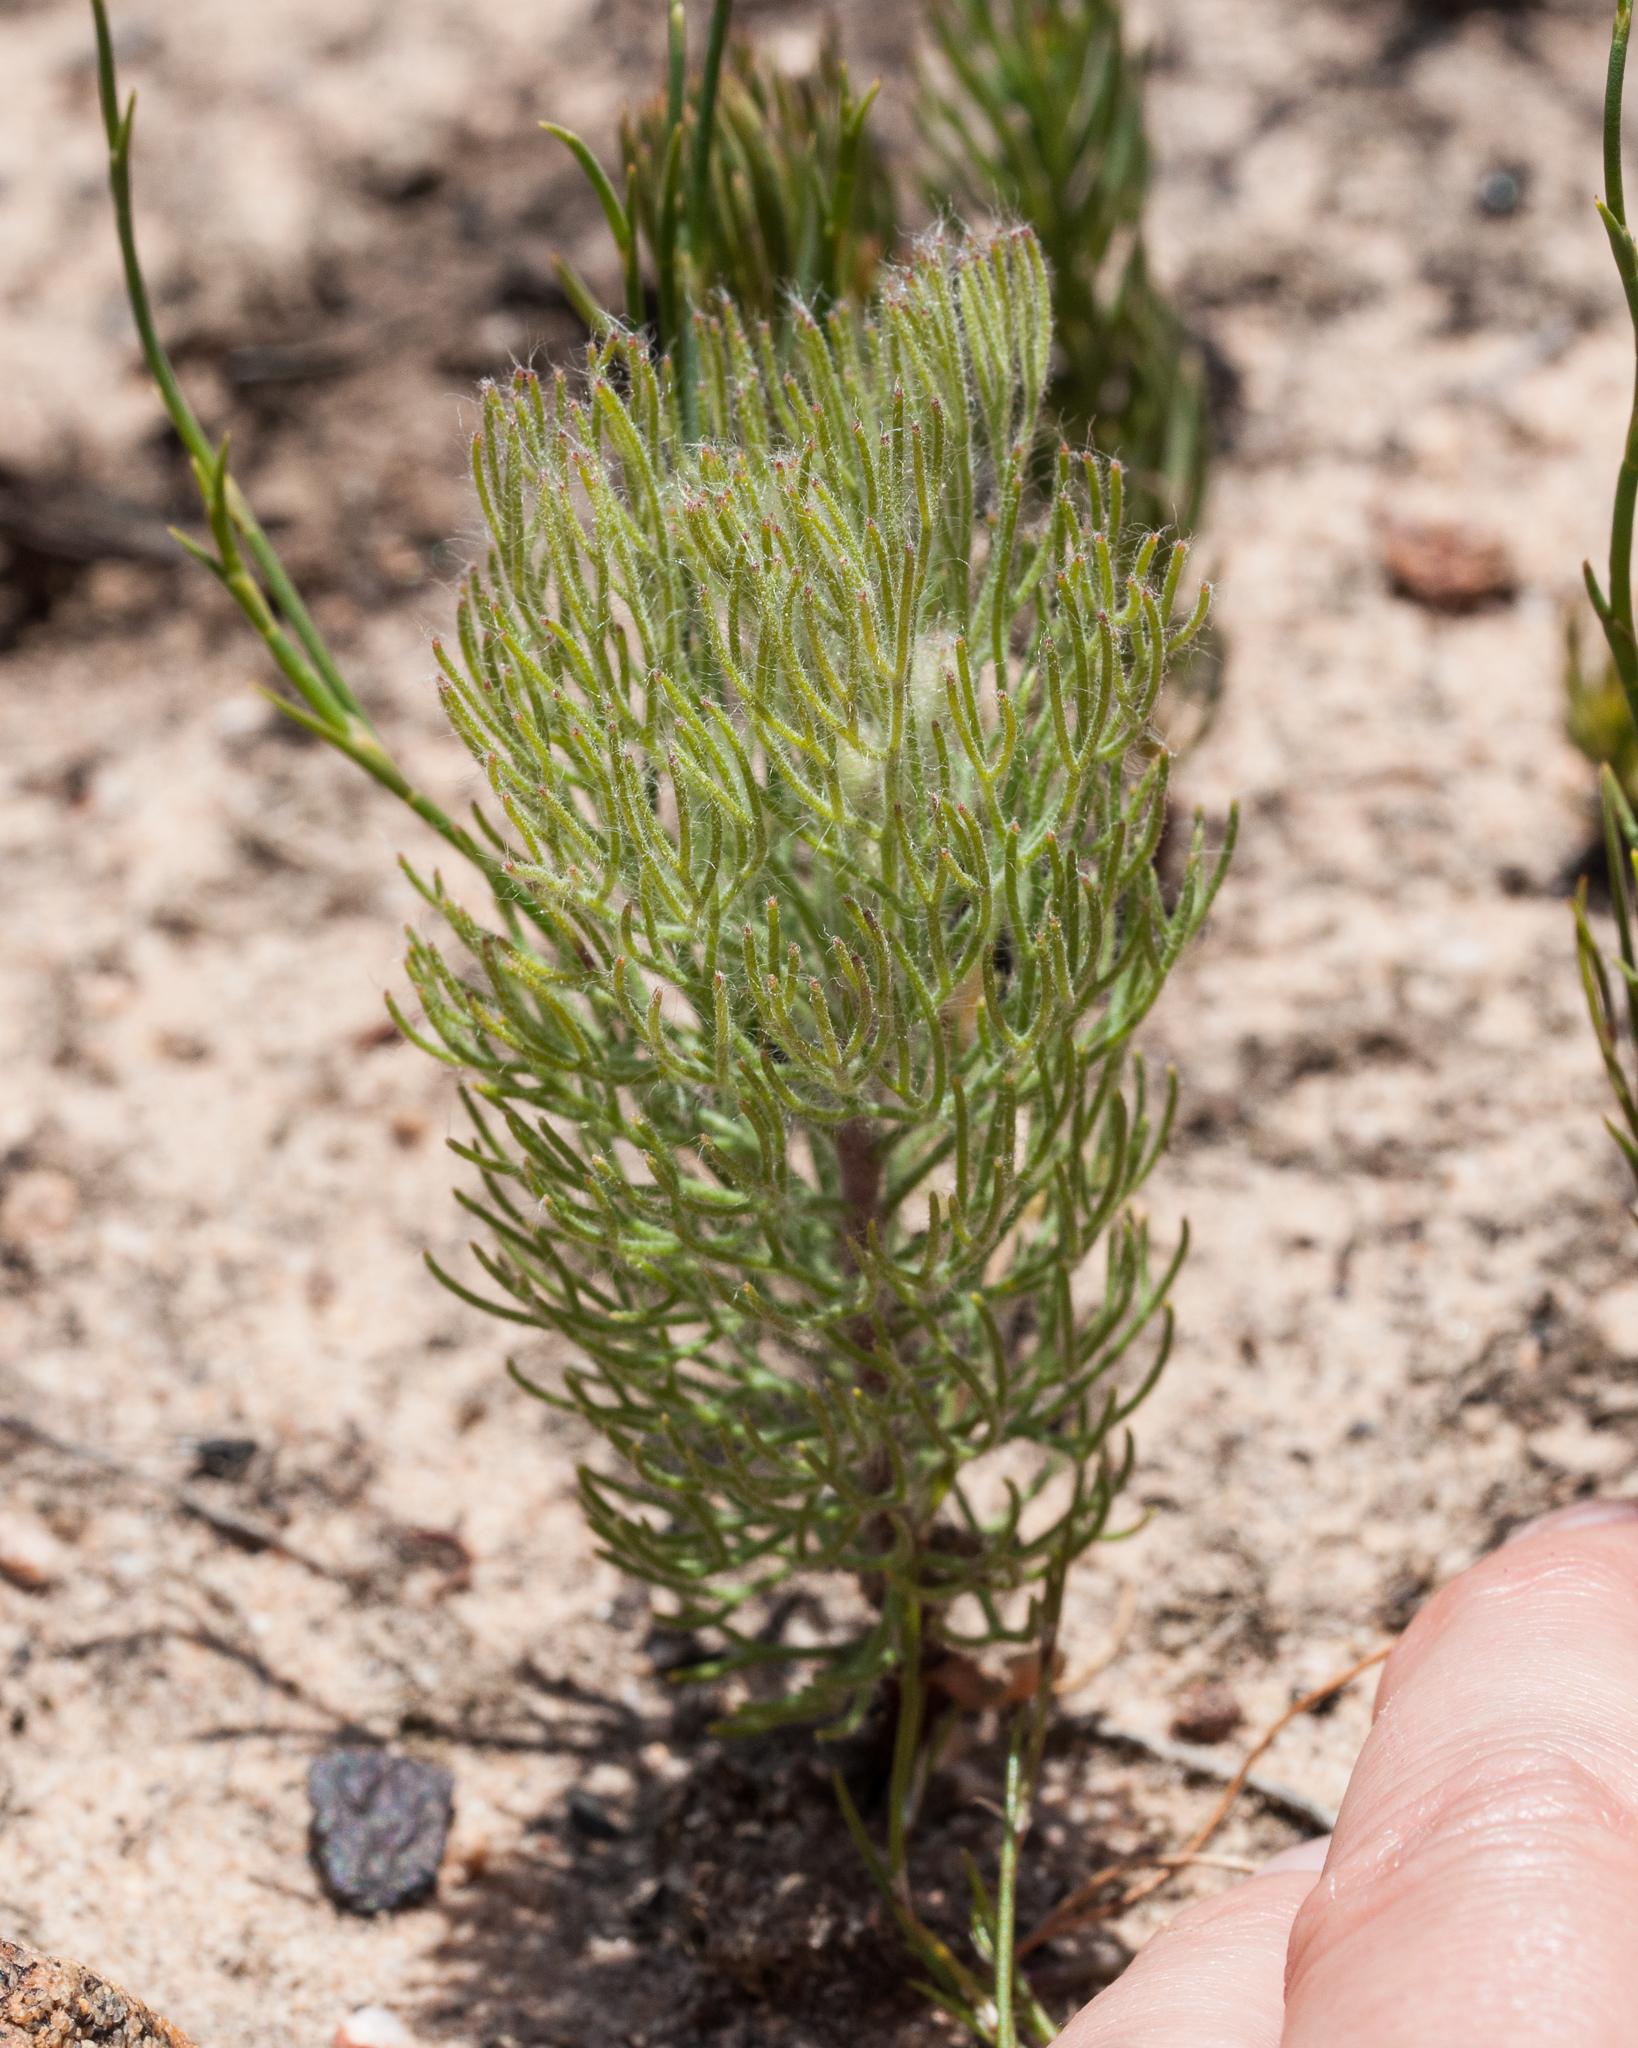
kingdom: Plantae
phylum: Tracheophyta
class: Magnoliopsida
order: Proteales
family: Proteaceae
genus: Serruria
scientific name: Serruria kraussii
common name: Snowball spiderhead
